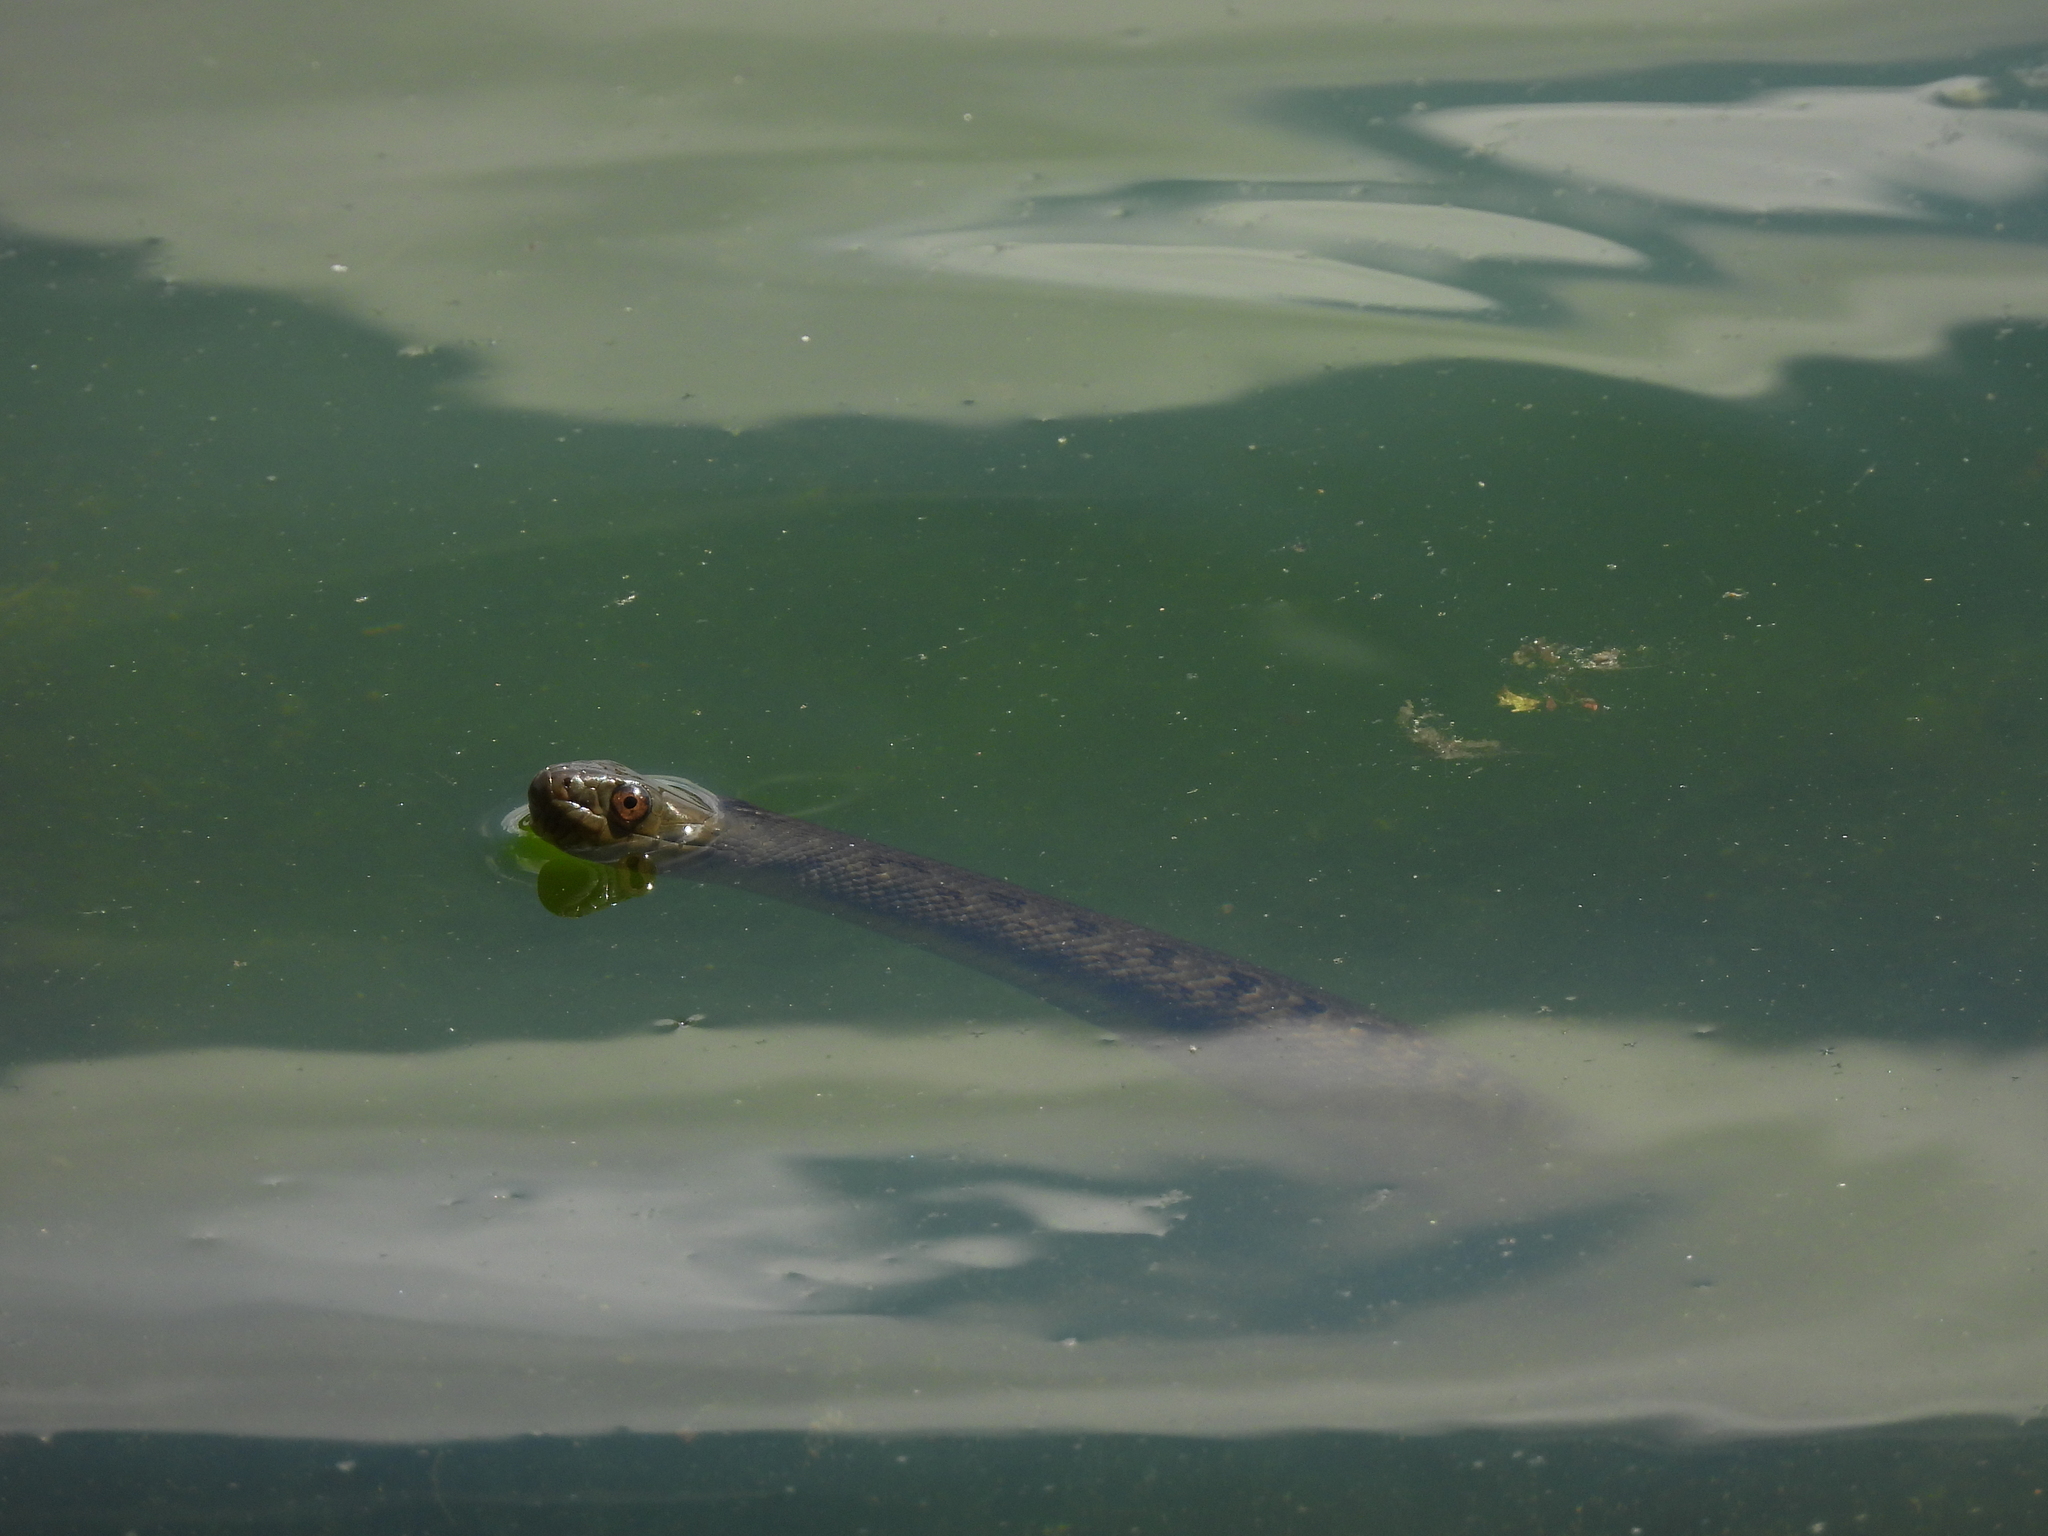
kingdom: Animalia
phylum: Chordata
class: Squamata
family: Colubridae
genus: Nerodia
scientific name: Nerodia rhombifer
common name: Diamondback water snake
